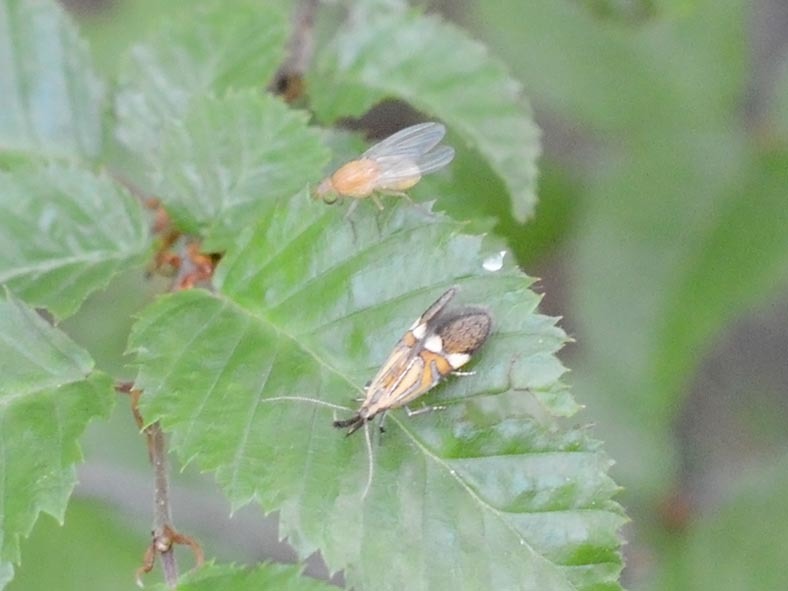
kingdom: Animalia
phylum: Arthropoda
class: Insecta
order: Lepidoptera
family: Oecophoridae
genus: Oecophora
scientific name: Oecophora staintoniella
